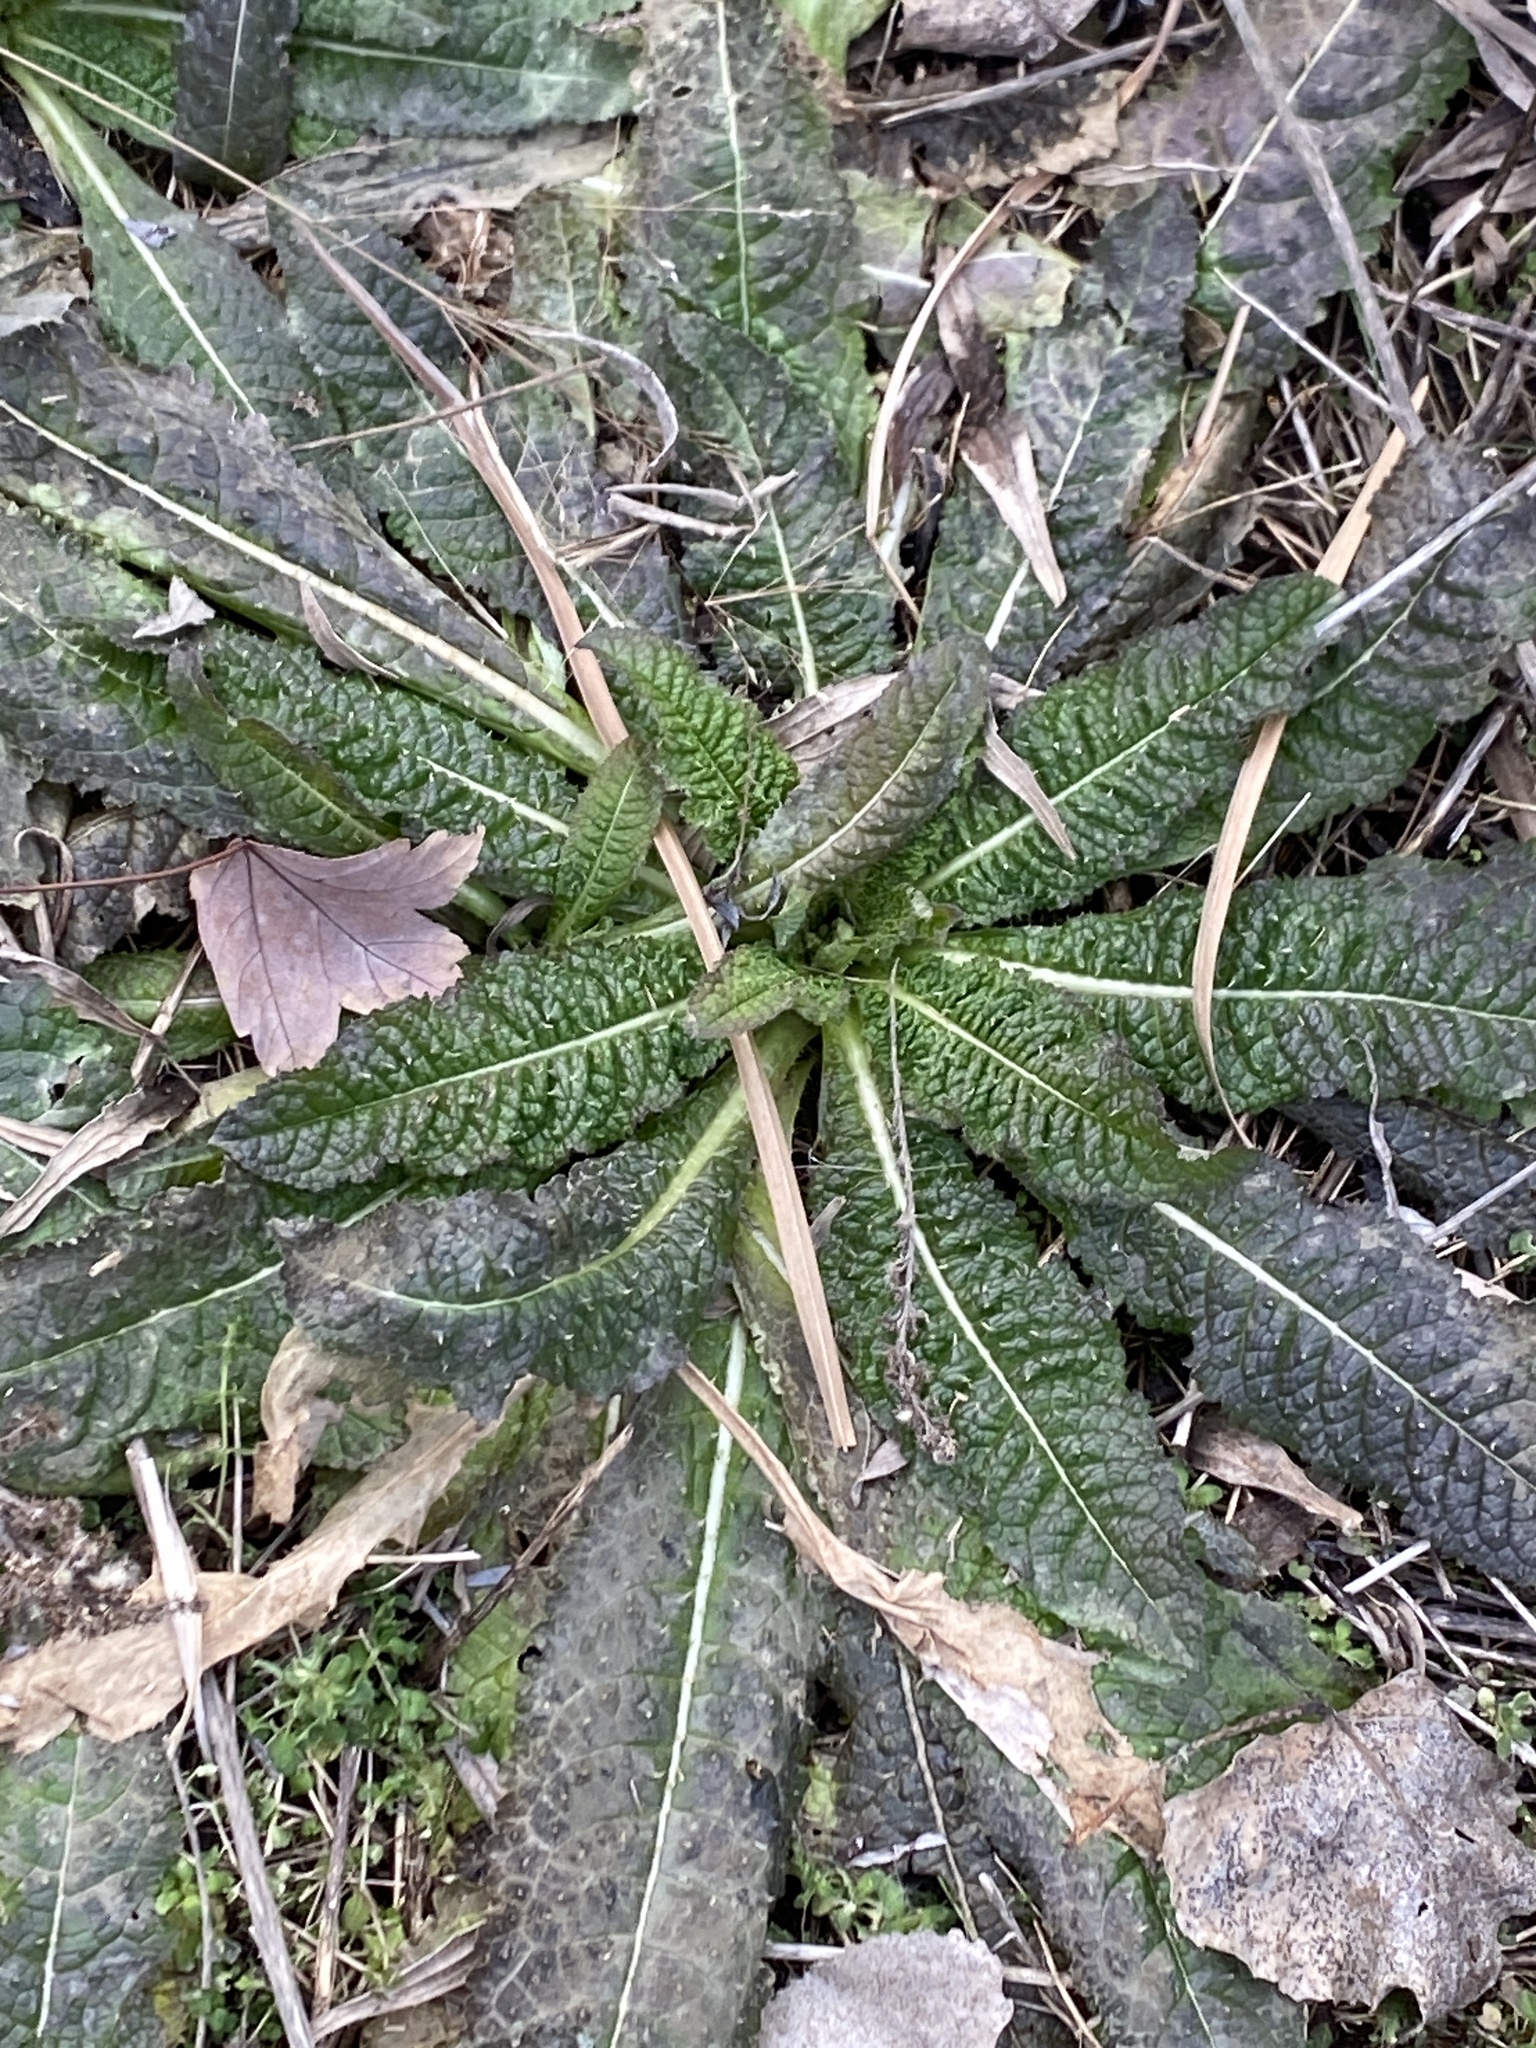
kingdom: Plantae
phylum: Tracheophyta
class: Magnoliopsida
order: Dipsacales
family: Caprifoliaceae
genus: Dipsacus
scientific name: Dipsacus fullonum
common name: Teasel
